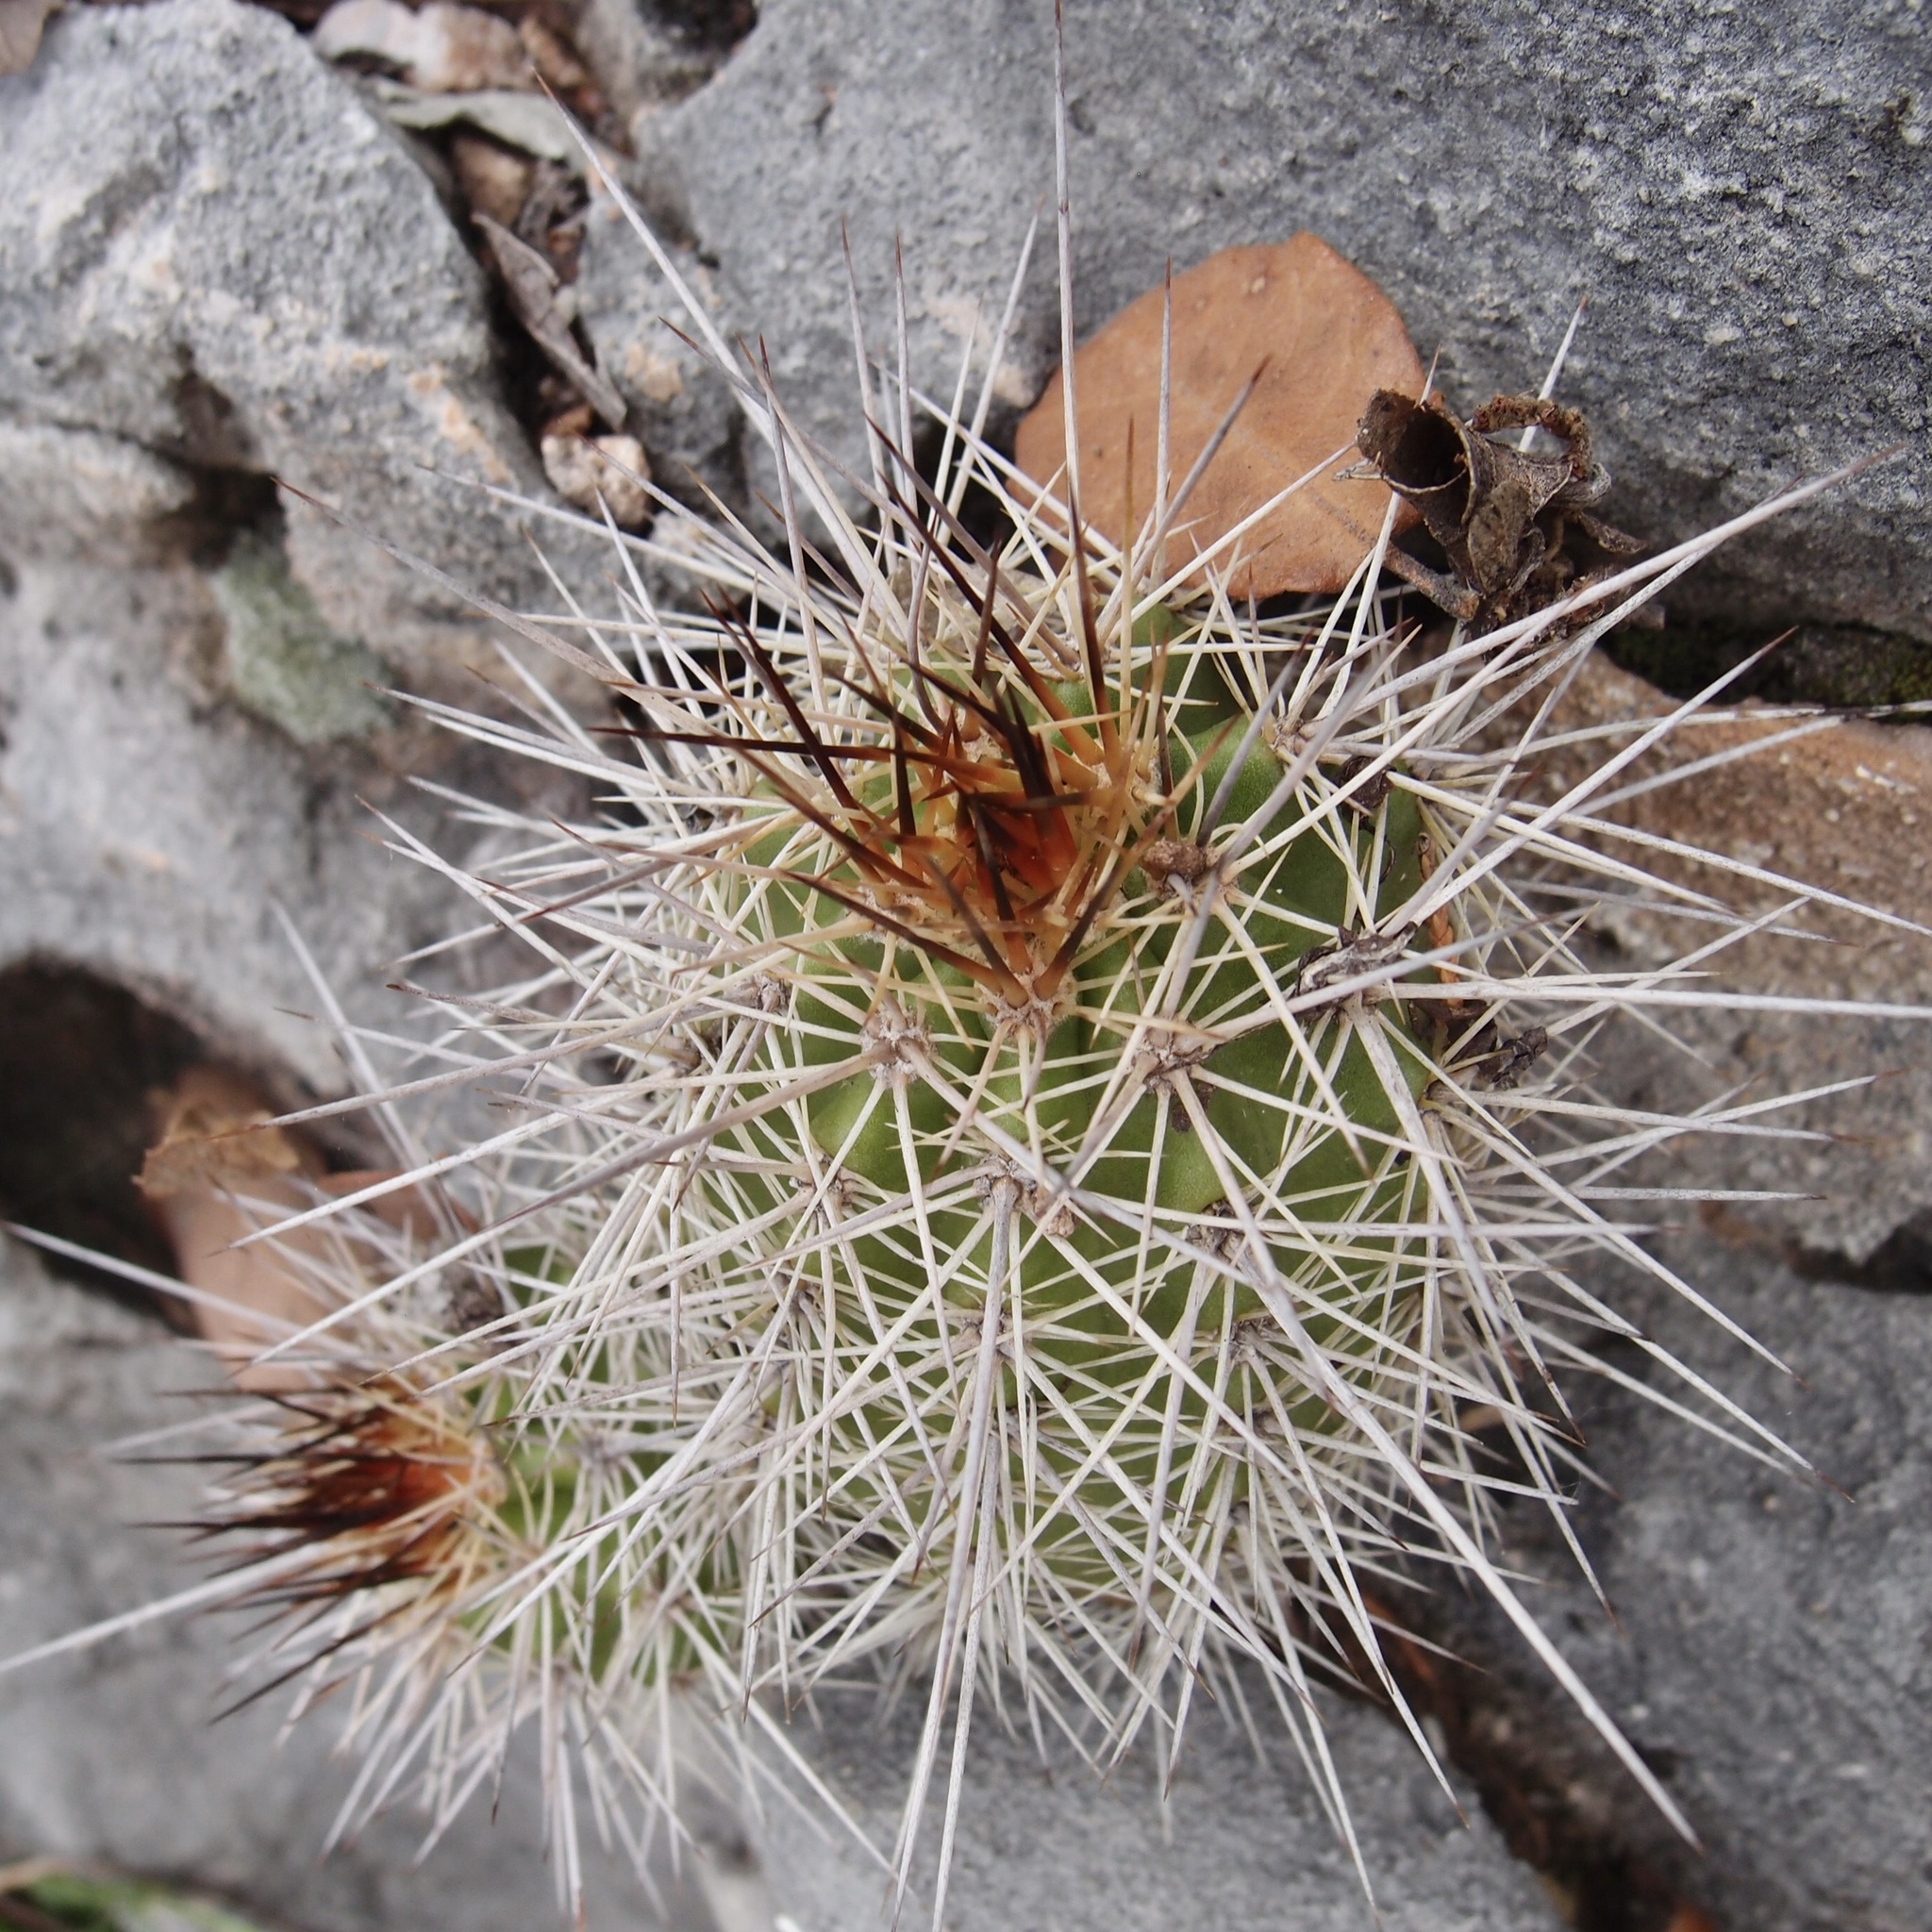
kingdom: Plantae
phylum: Tracheophyta
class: Magnoliopsida
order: Caryophyllales
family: Cactaceae
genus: Echinocereus
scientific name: Echinocereus coccineus
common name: Scarlet hedgehog cactus
